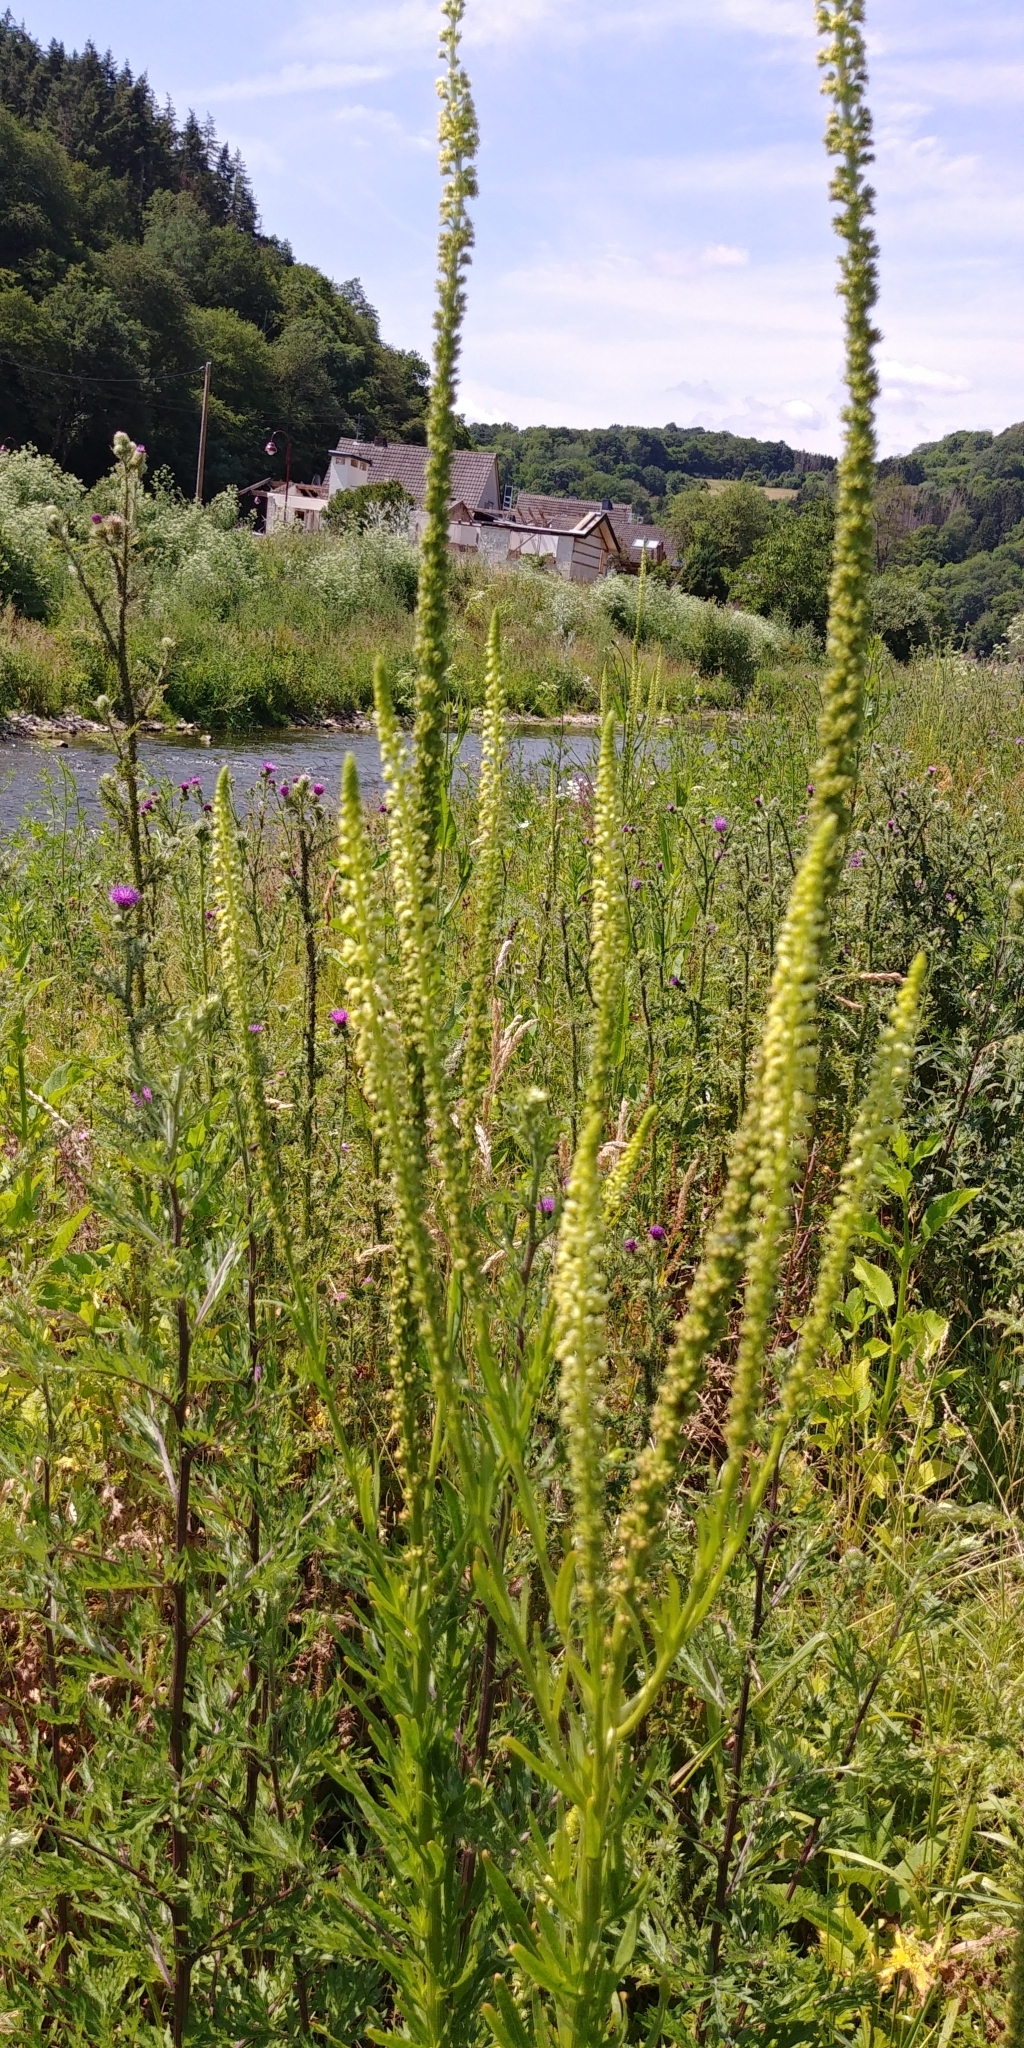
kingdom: Plantae
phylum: Tracheophyta
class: Magnoliopsida
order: Brassicales
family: Resedaceae
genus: Reseda
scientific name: Reseda luteola
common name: Weld
